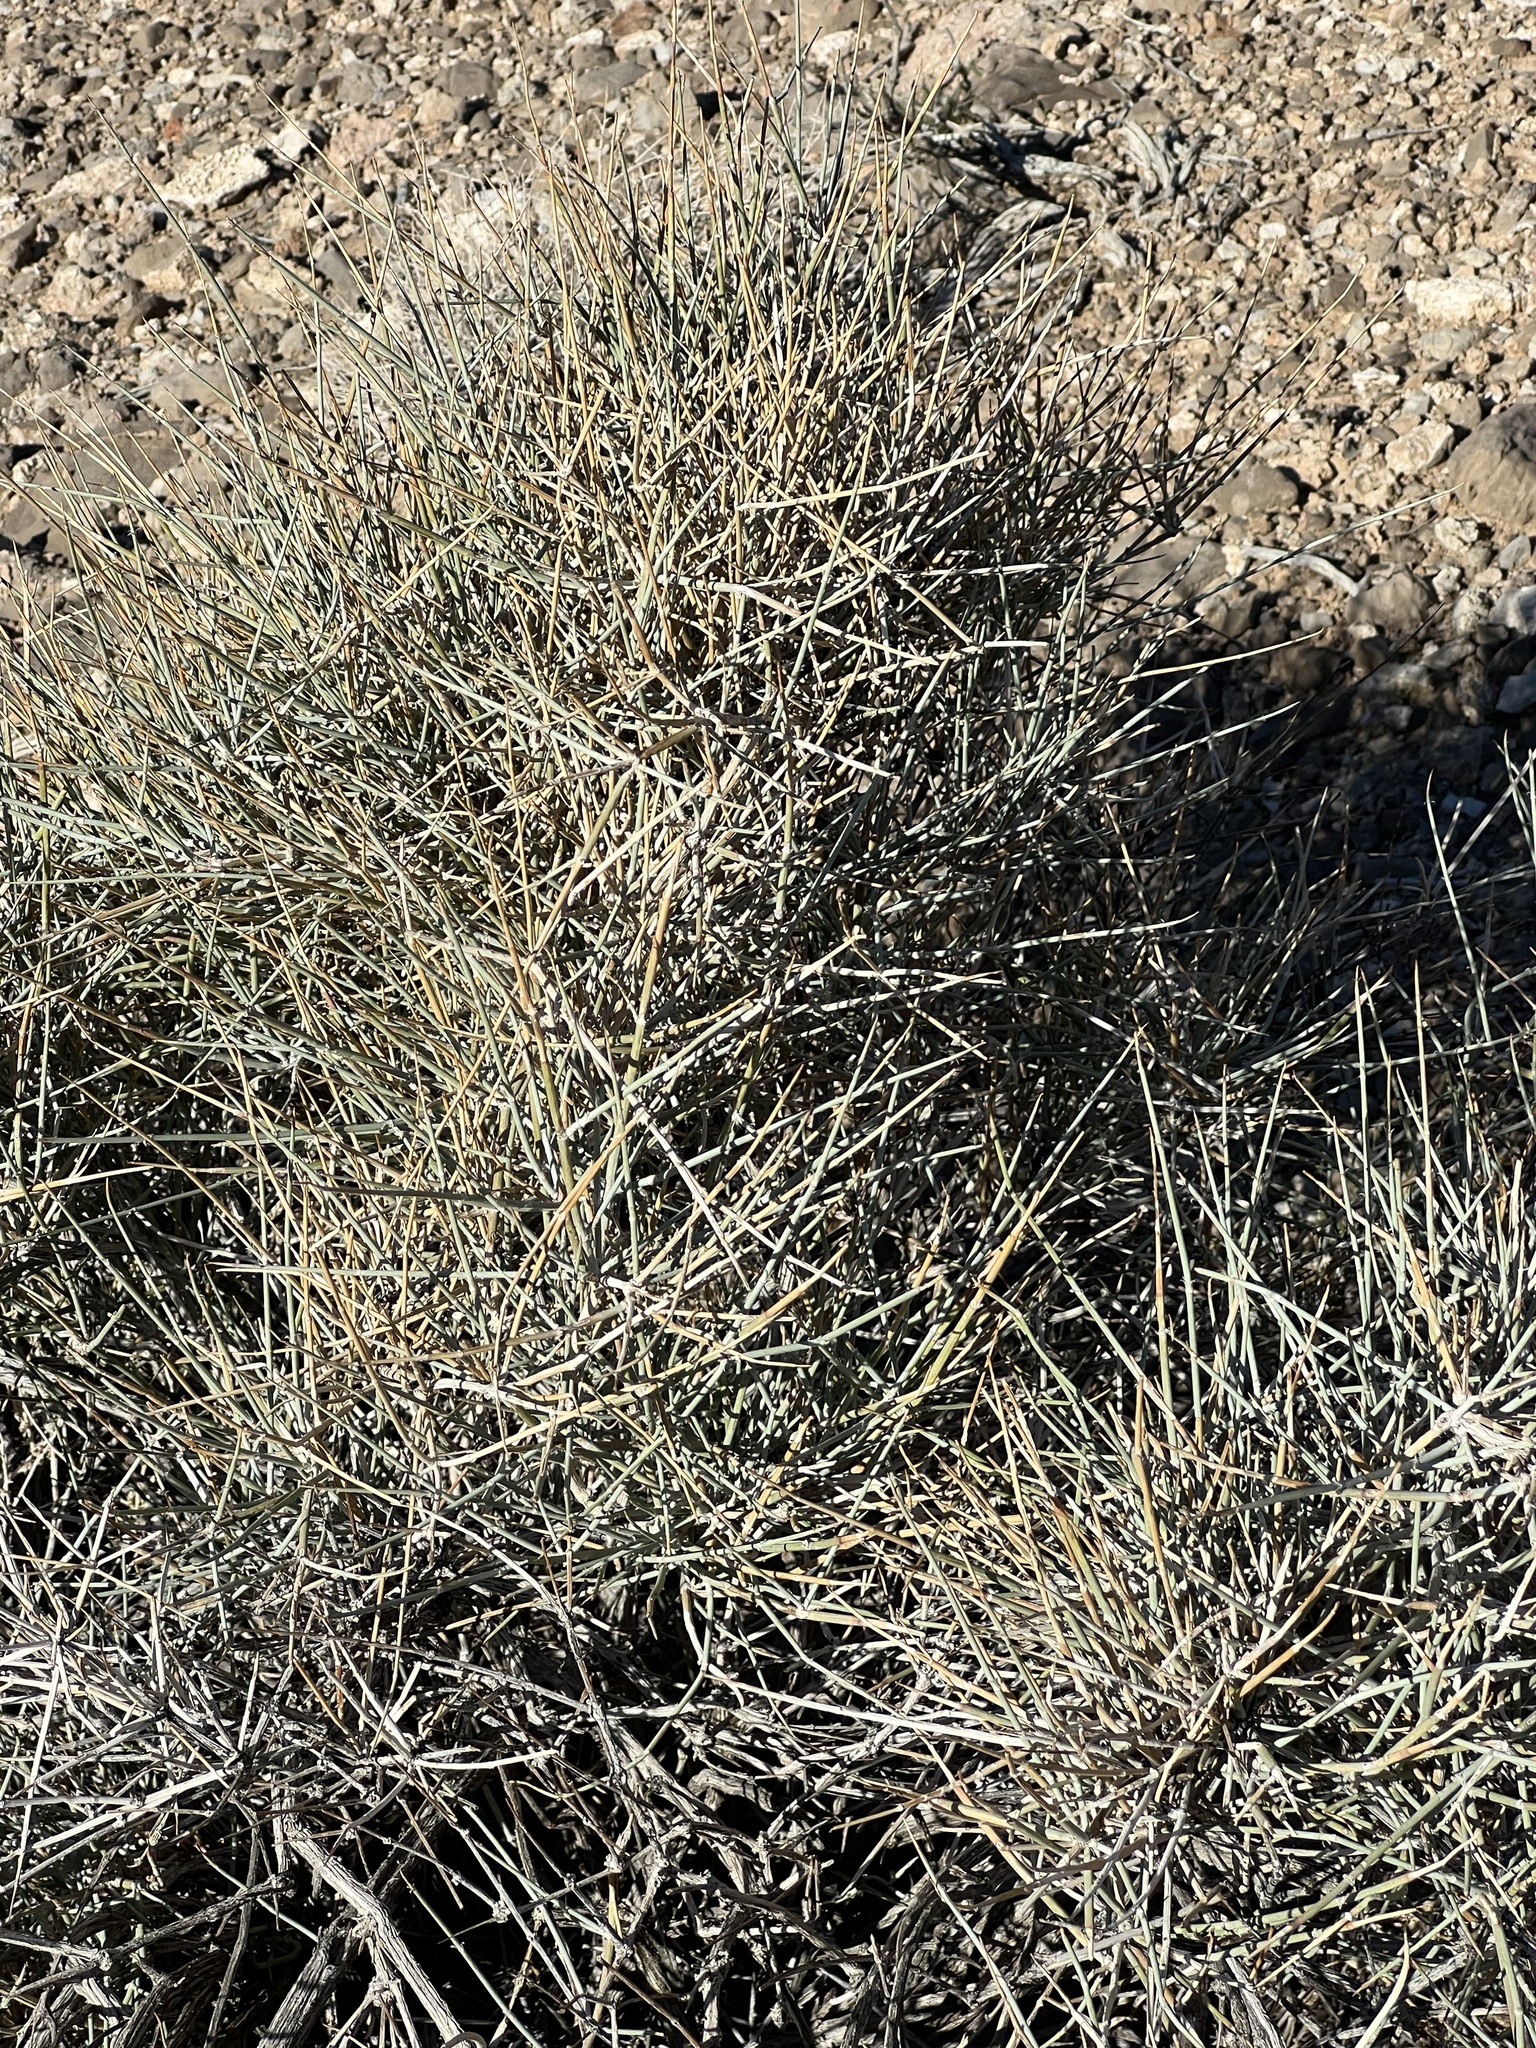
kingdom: Plantae
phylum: Tracheophyta
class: Gnetopsida
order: Ephedrales
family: Ephedraceae
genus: Ephedra
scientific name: Ephedra nevadensis
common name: Gray ephedra
